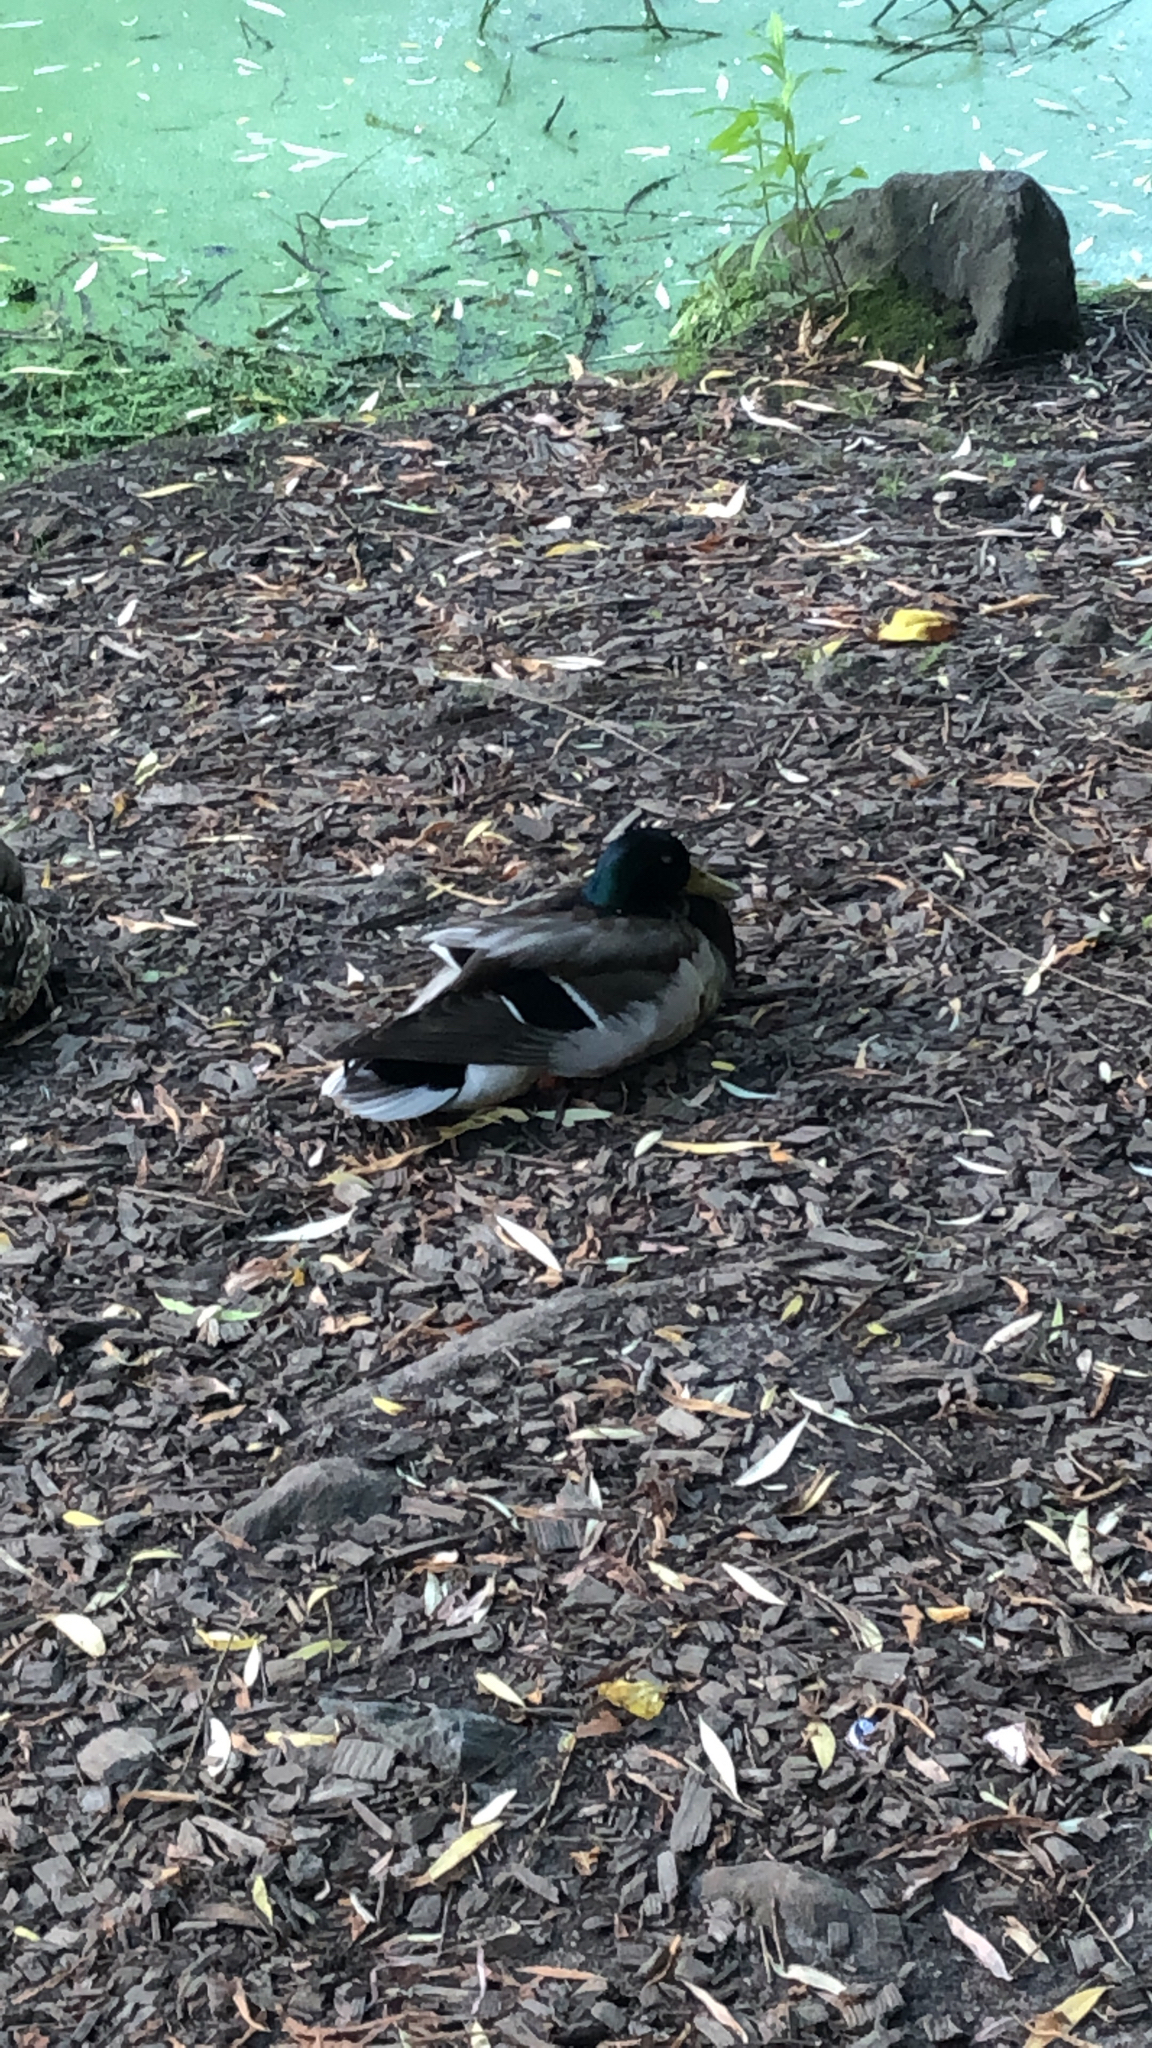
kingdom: Animalia
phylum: Chordata
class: Aves
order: Anseriformes
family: Anatidae
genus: Anas
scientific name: Anas platyrhynchos
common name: Mallard
